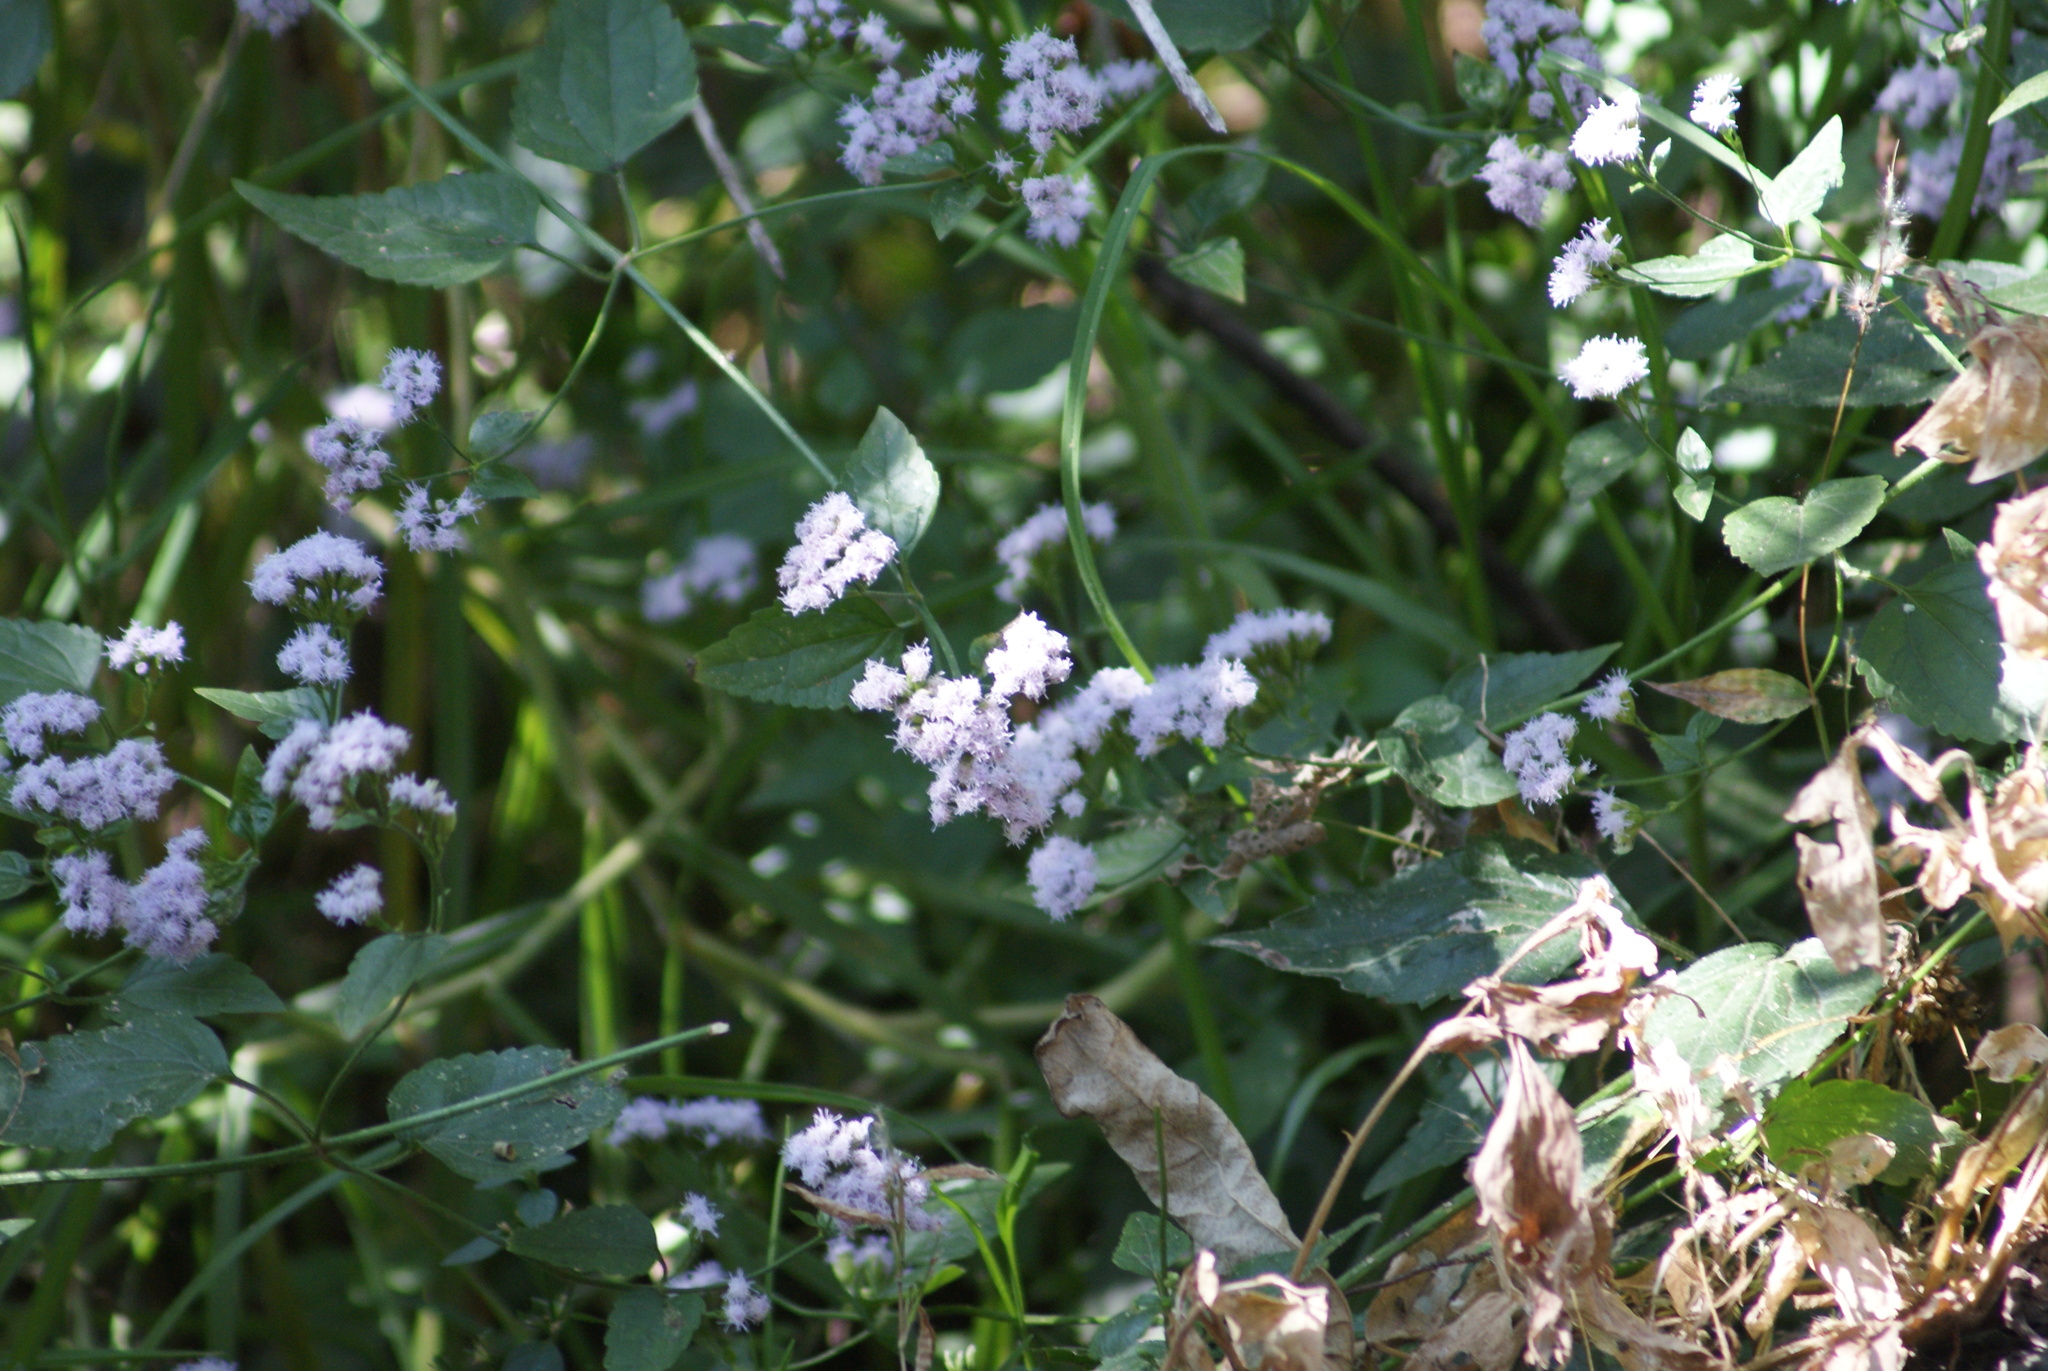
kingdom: Plantae
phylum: Tracheophyta
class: Magnoliopsida
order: Asterales
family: Asteraceae
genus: Fleischmannia
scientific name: Fleischmannia pycnocephala
